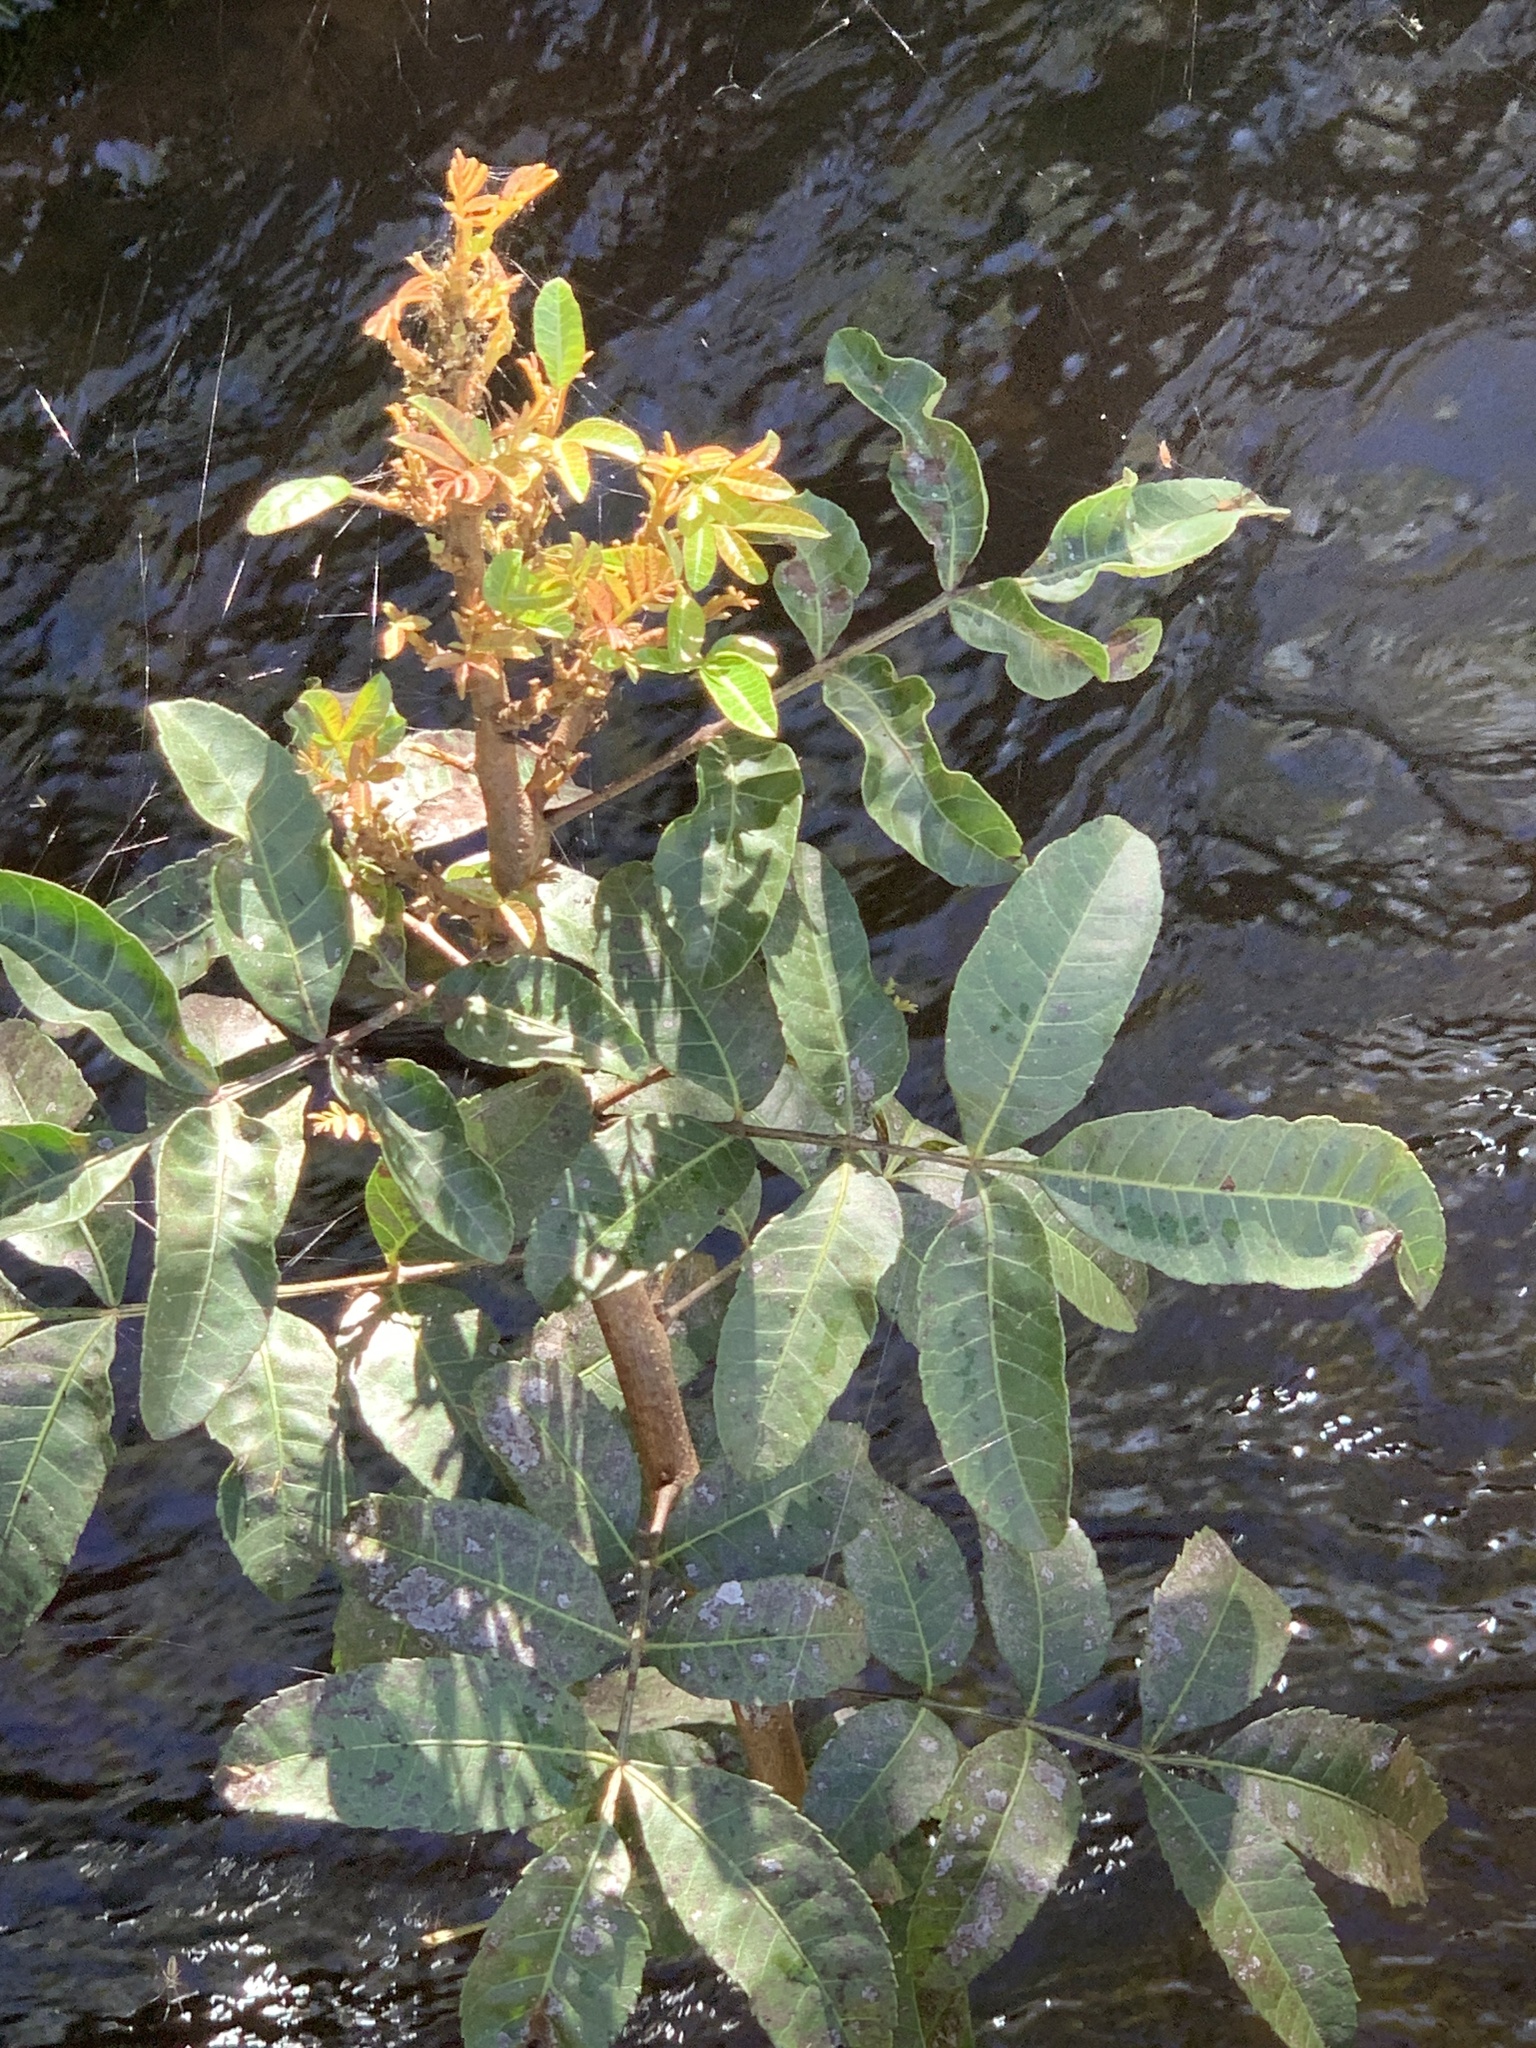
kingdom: Plantae
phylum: Tracheophyta
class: Magnoliopsida
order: Sapindales
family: Anacardiaceae
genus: Schinus
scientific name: Schinus terebinthifolia
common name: Brazilian peppertree
